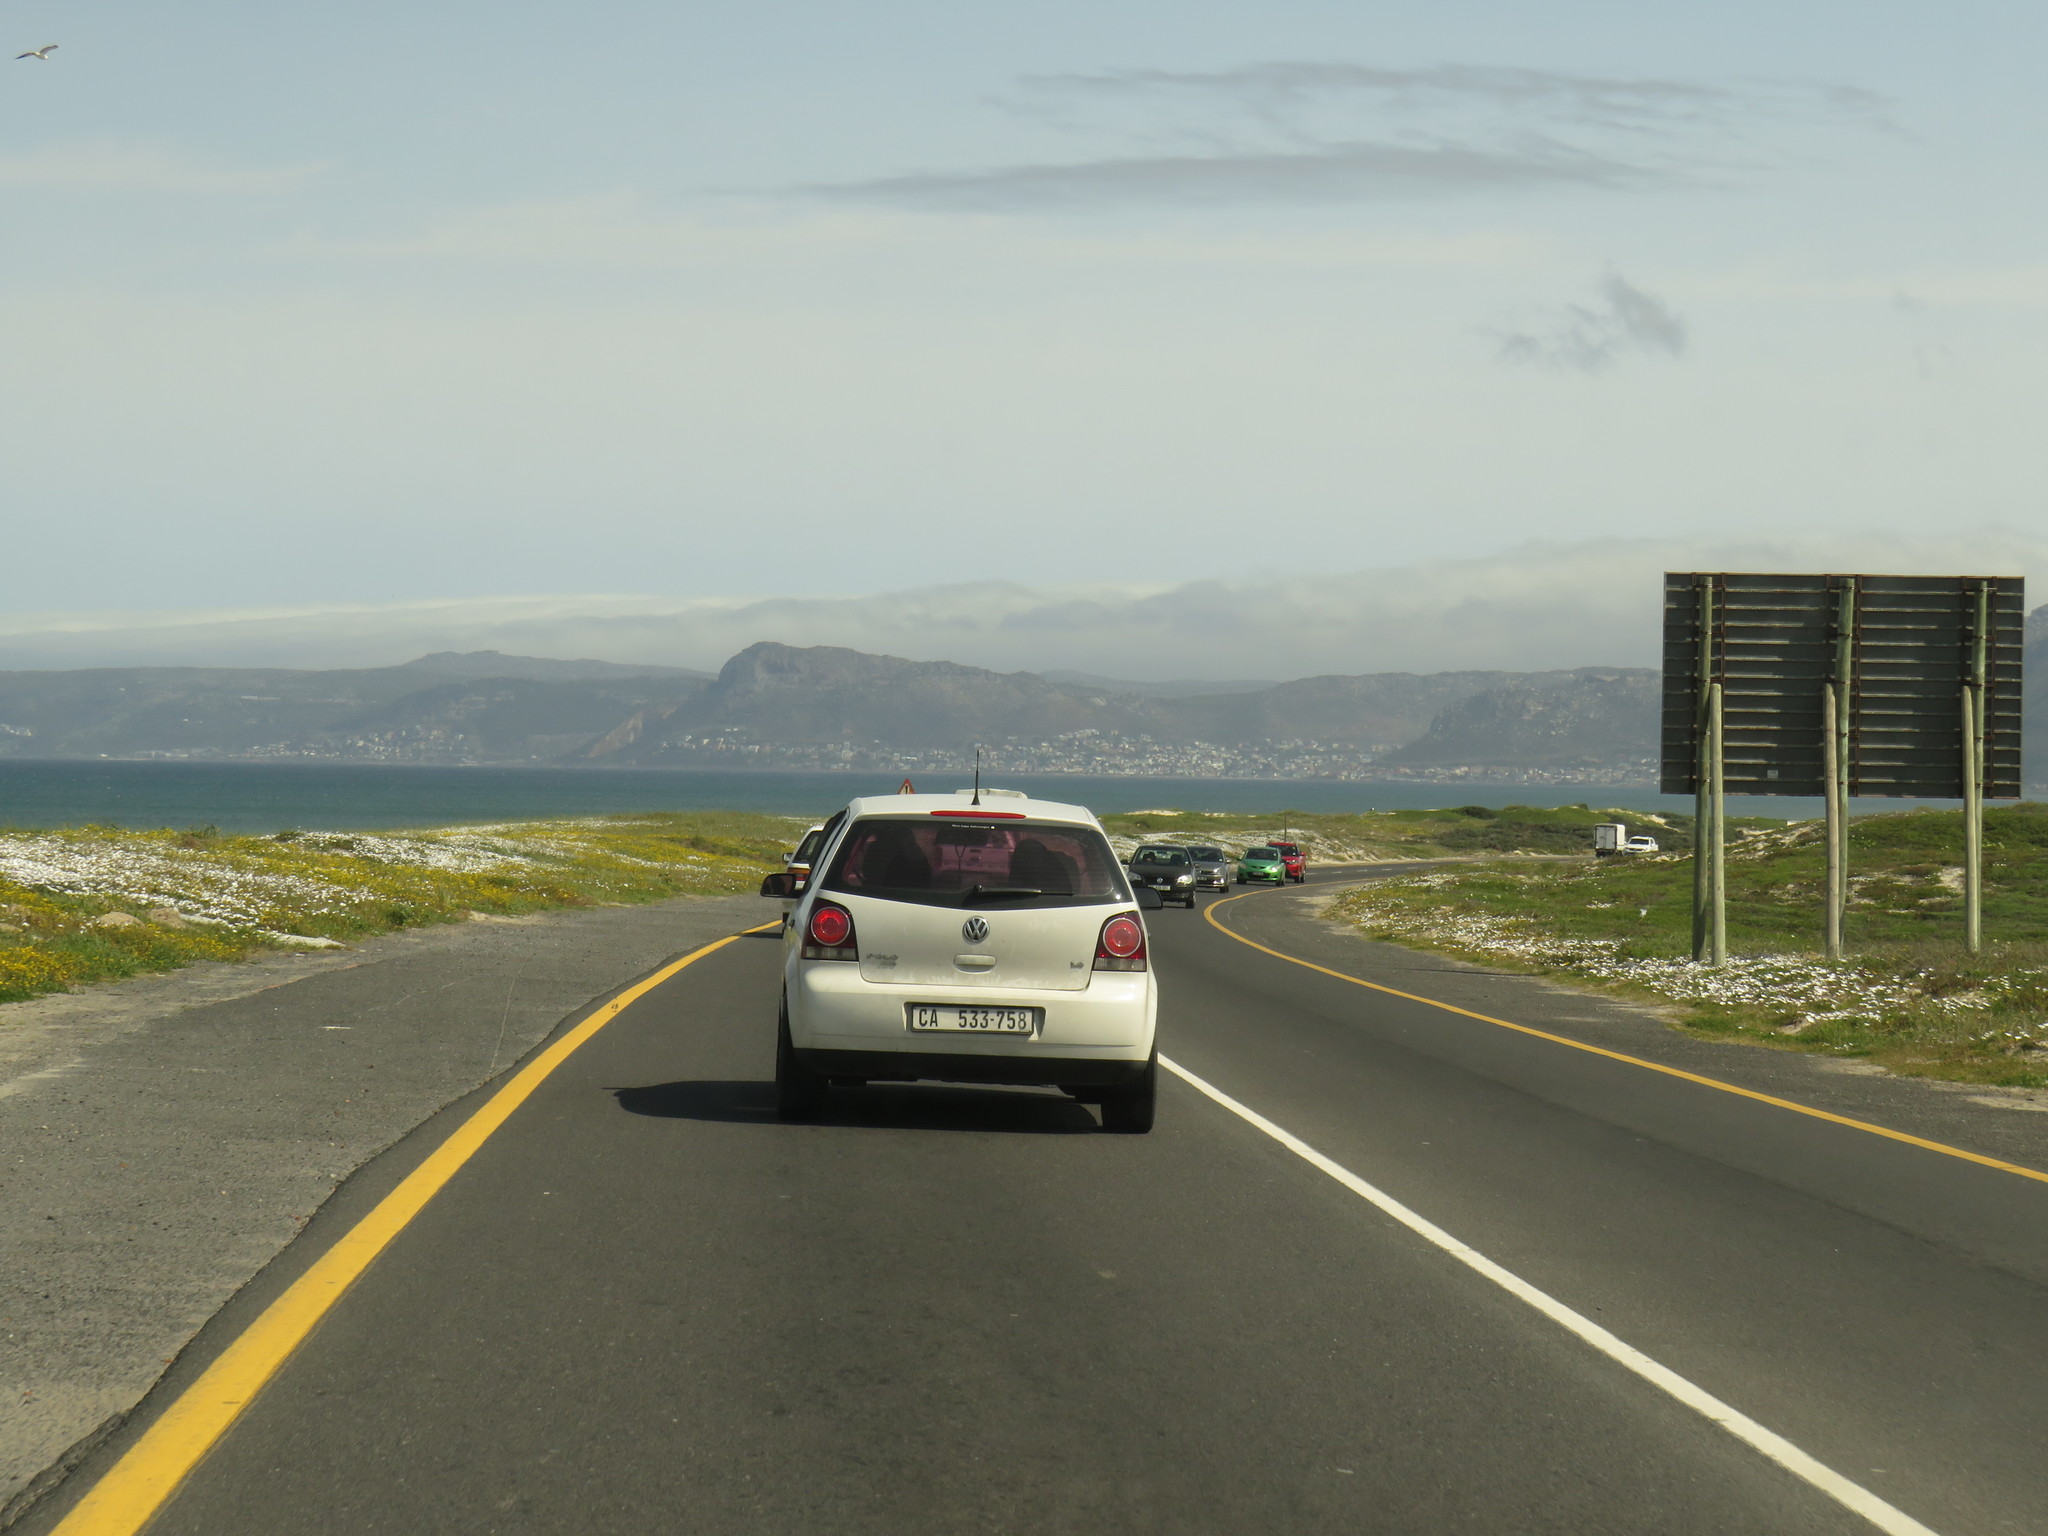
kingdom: Plantae
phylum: Tracheophyta
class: Magnoliopsida
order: Asterales
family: Asteraceae
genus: Dimorphotheca
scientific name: Dimorphotheca pluvialis
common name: Weather prophet
